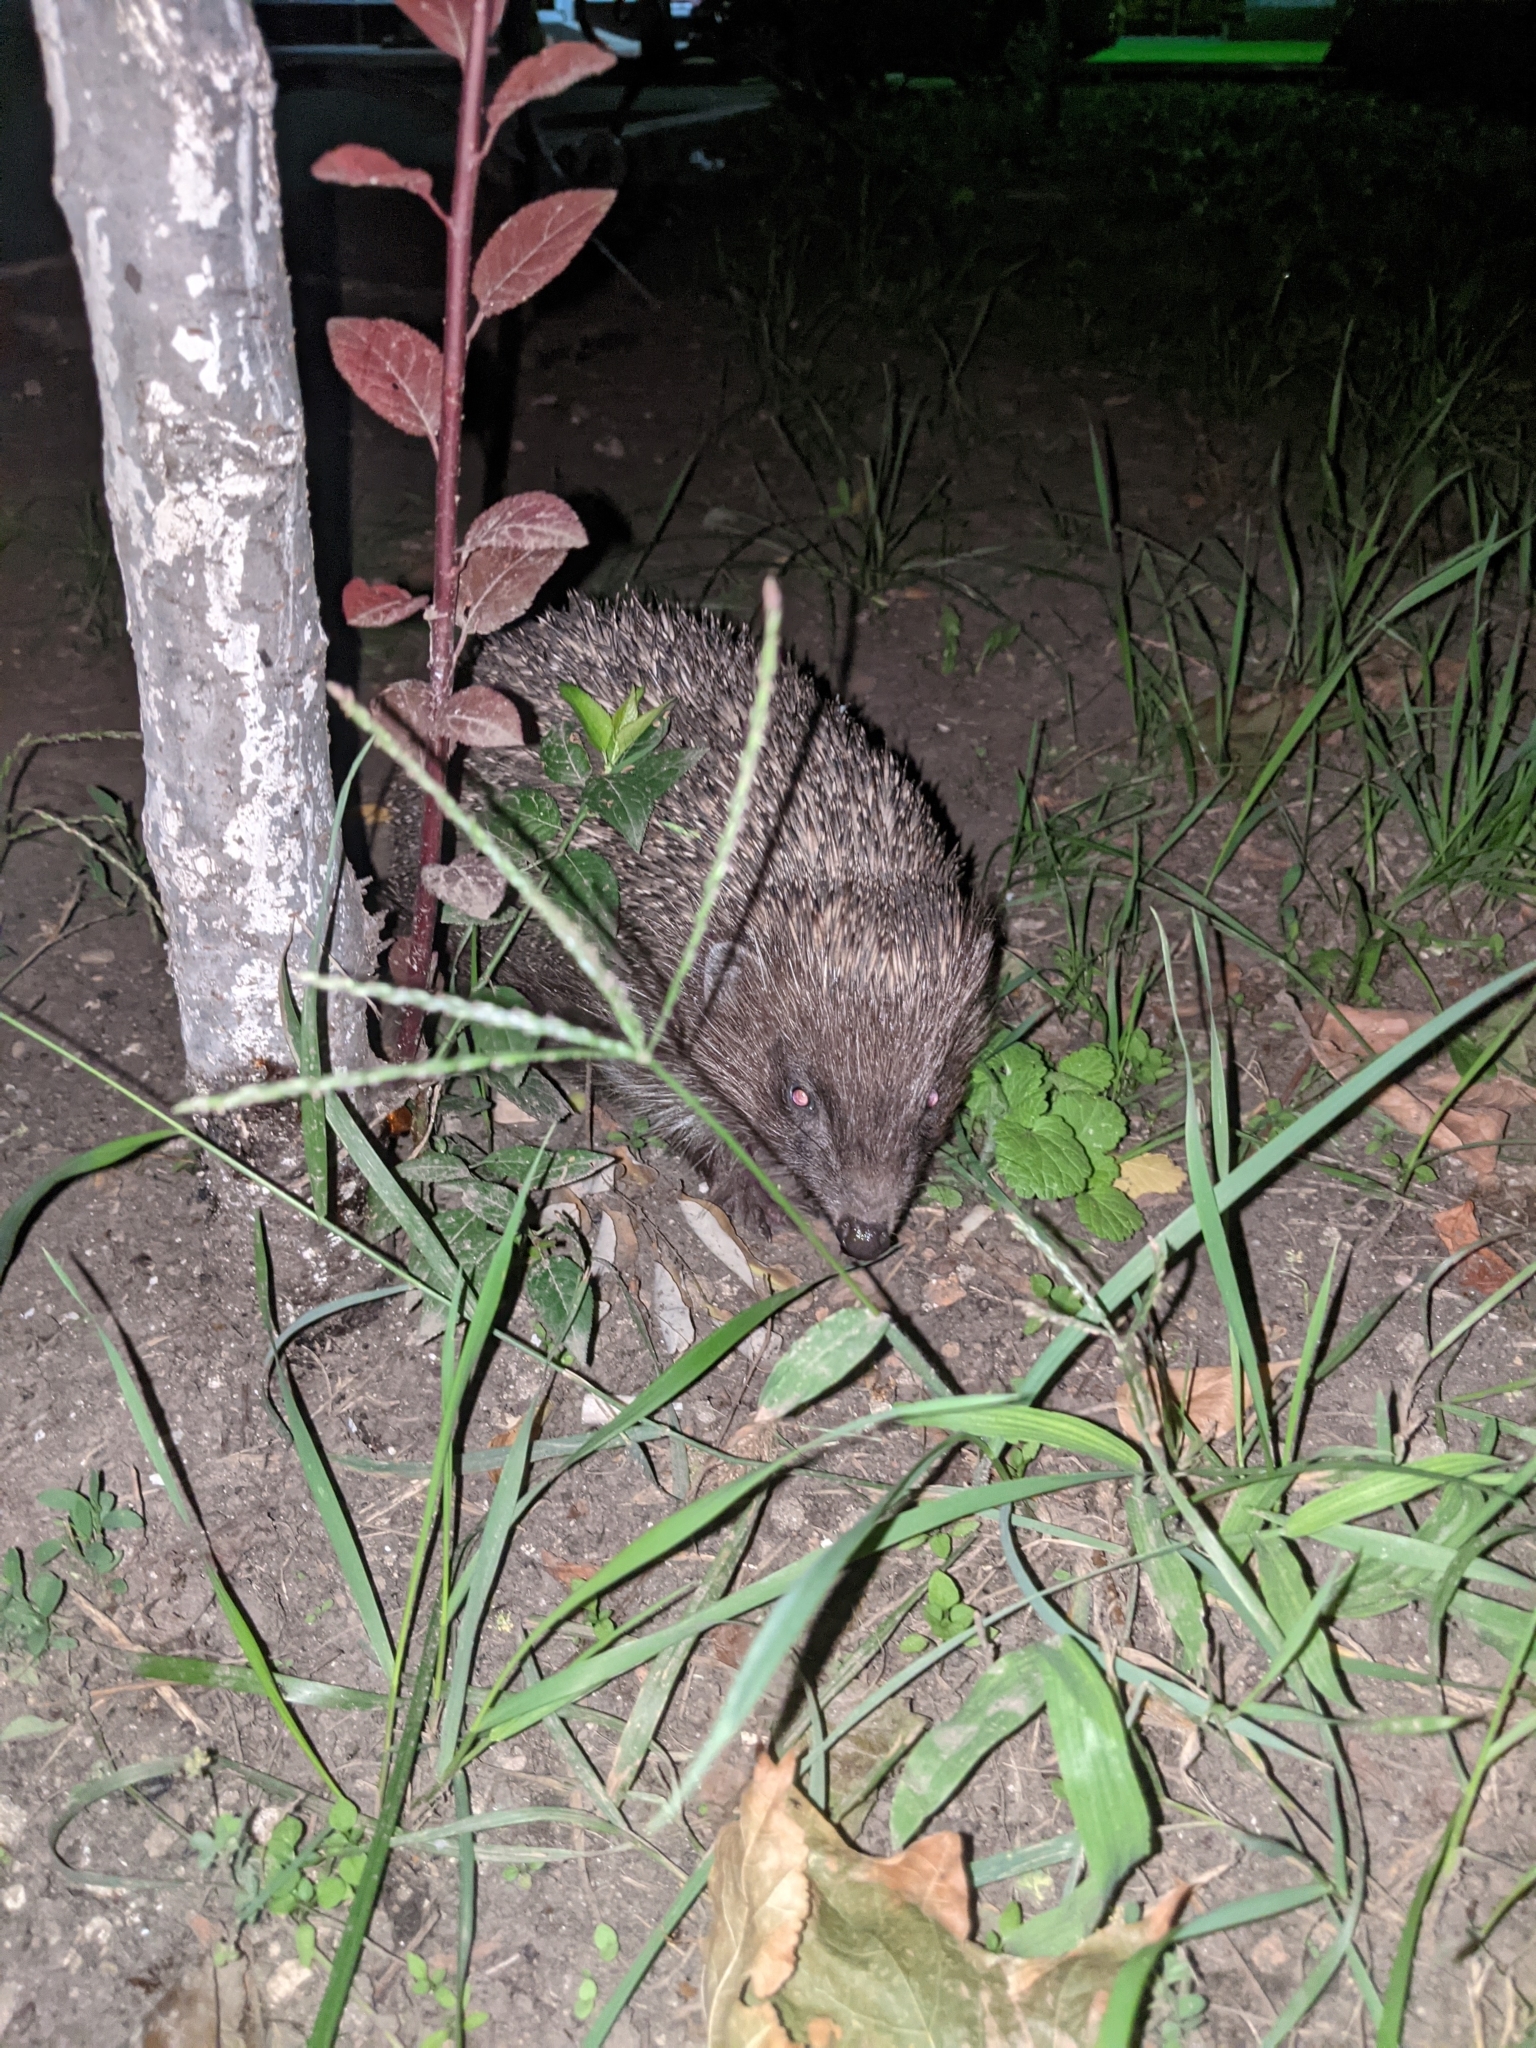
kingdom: Animalia
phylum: Chordata
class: Mammalia
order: Erinaceomorpha
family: Erinaceidae
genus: Erinaceus
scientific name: Erinaceus roumanicus
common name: Northern white-breasted hedgehog
